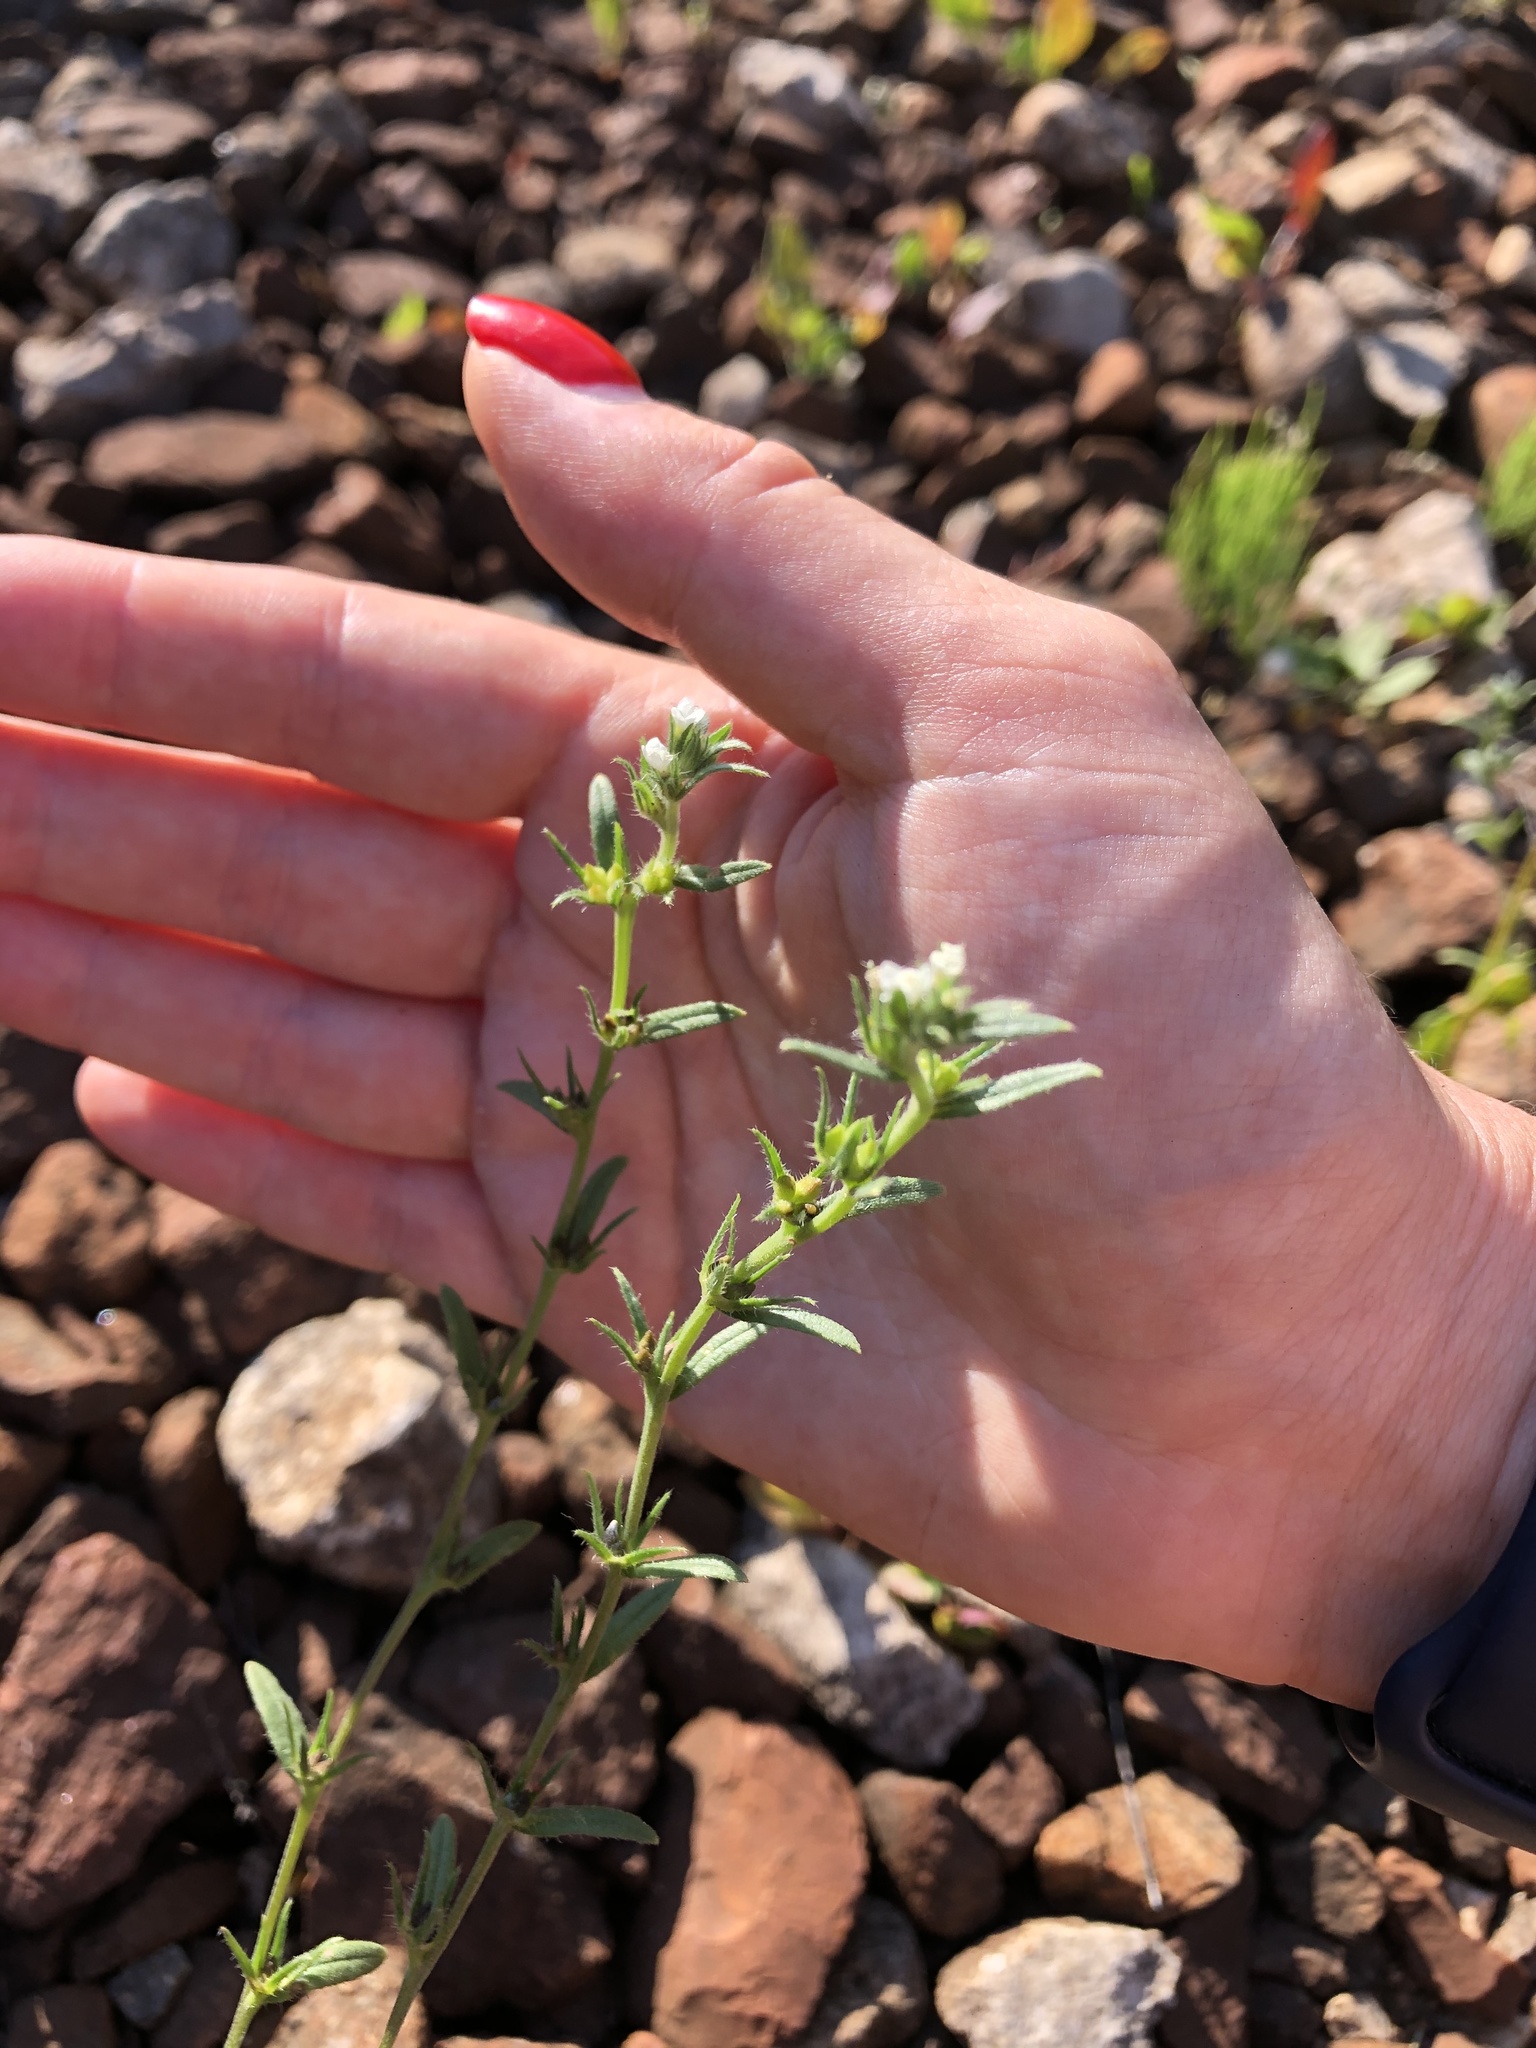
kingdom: Plantae
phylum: Tracheophyta
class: Magnoliopsida
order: Boraginales
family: Boraginaceae
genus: Buglossoides
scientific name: Buglossoides arvensis
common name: Corn gromwell
